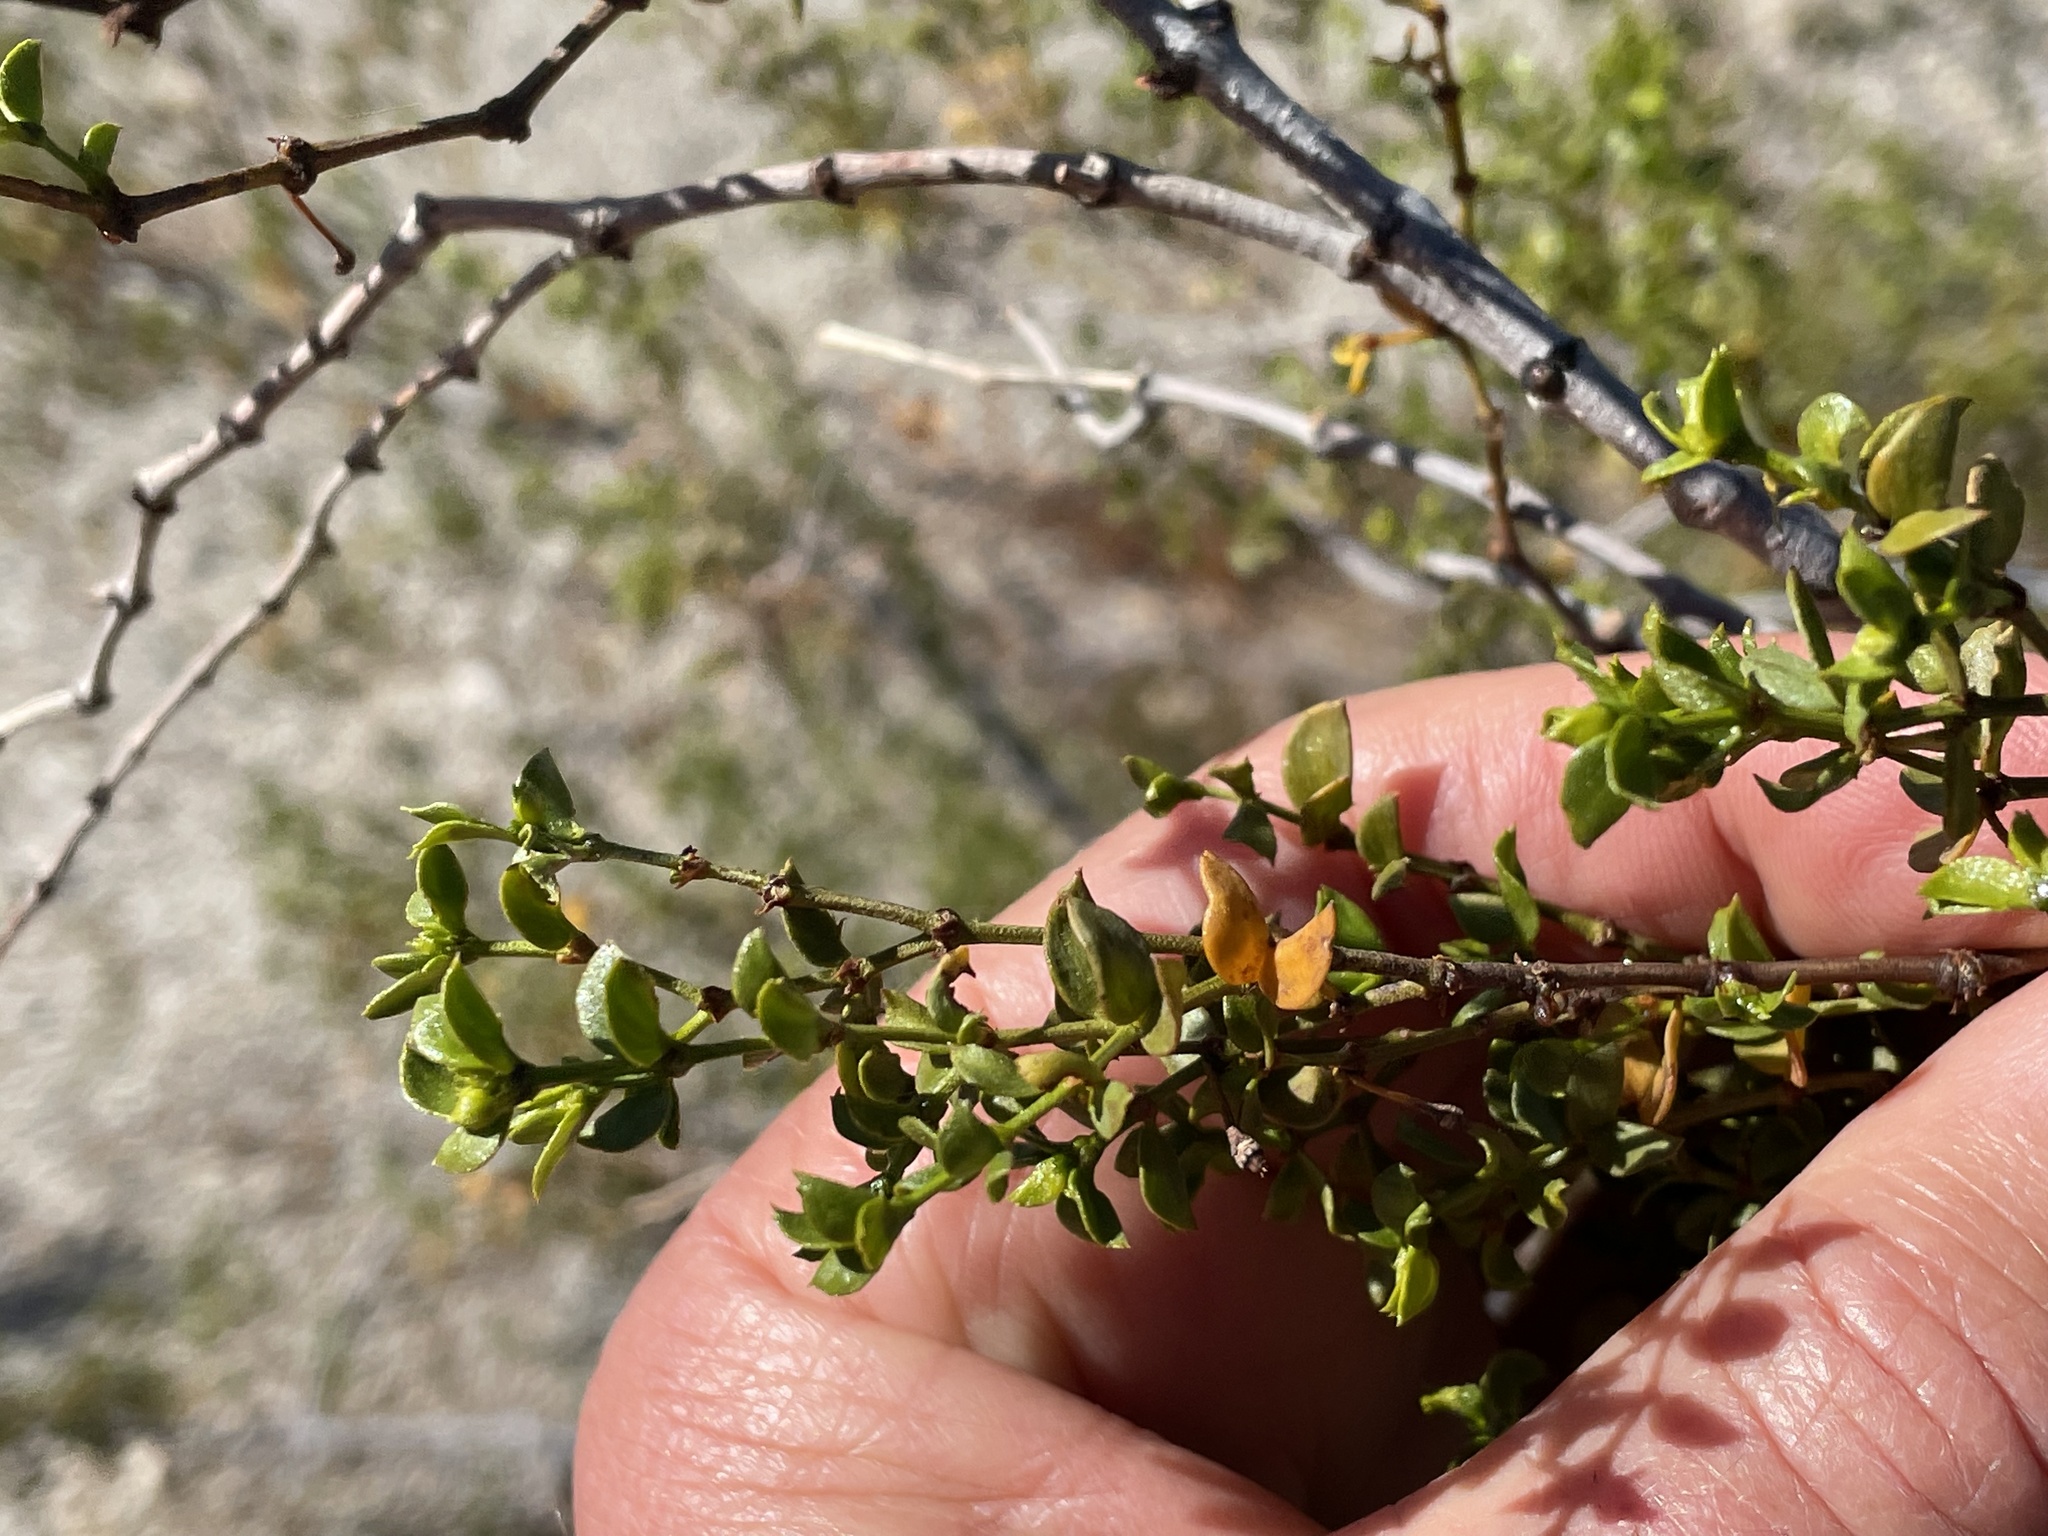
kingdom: Animalia
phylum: Arthropoda
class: Insecta
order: Diptera
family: Cecidomyiidae
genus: Asphondylia
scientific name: Asphondylia auripila
